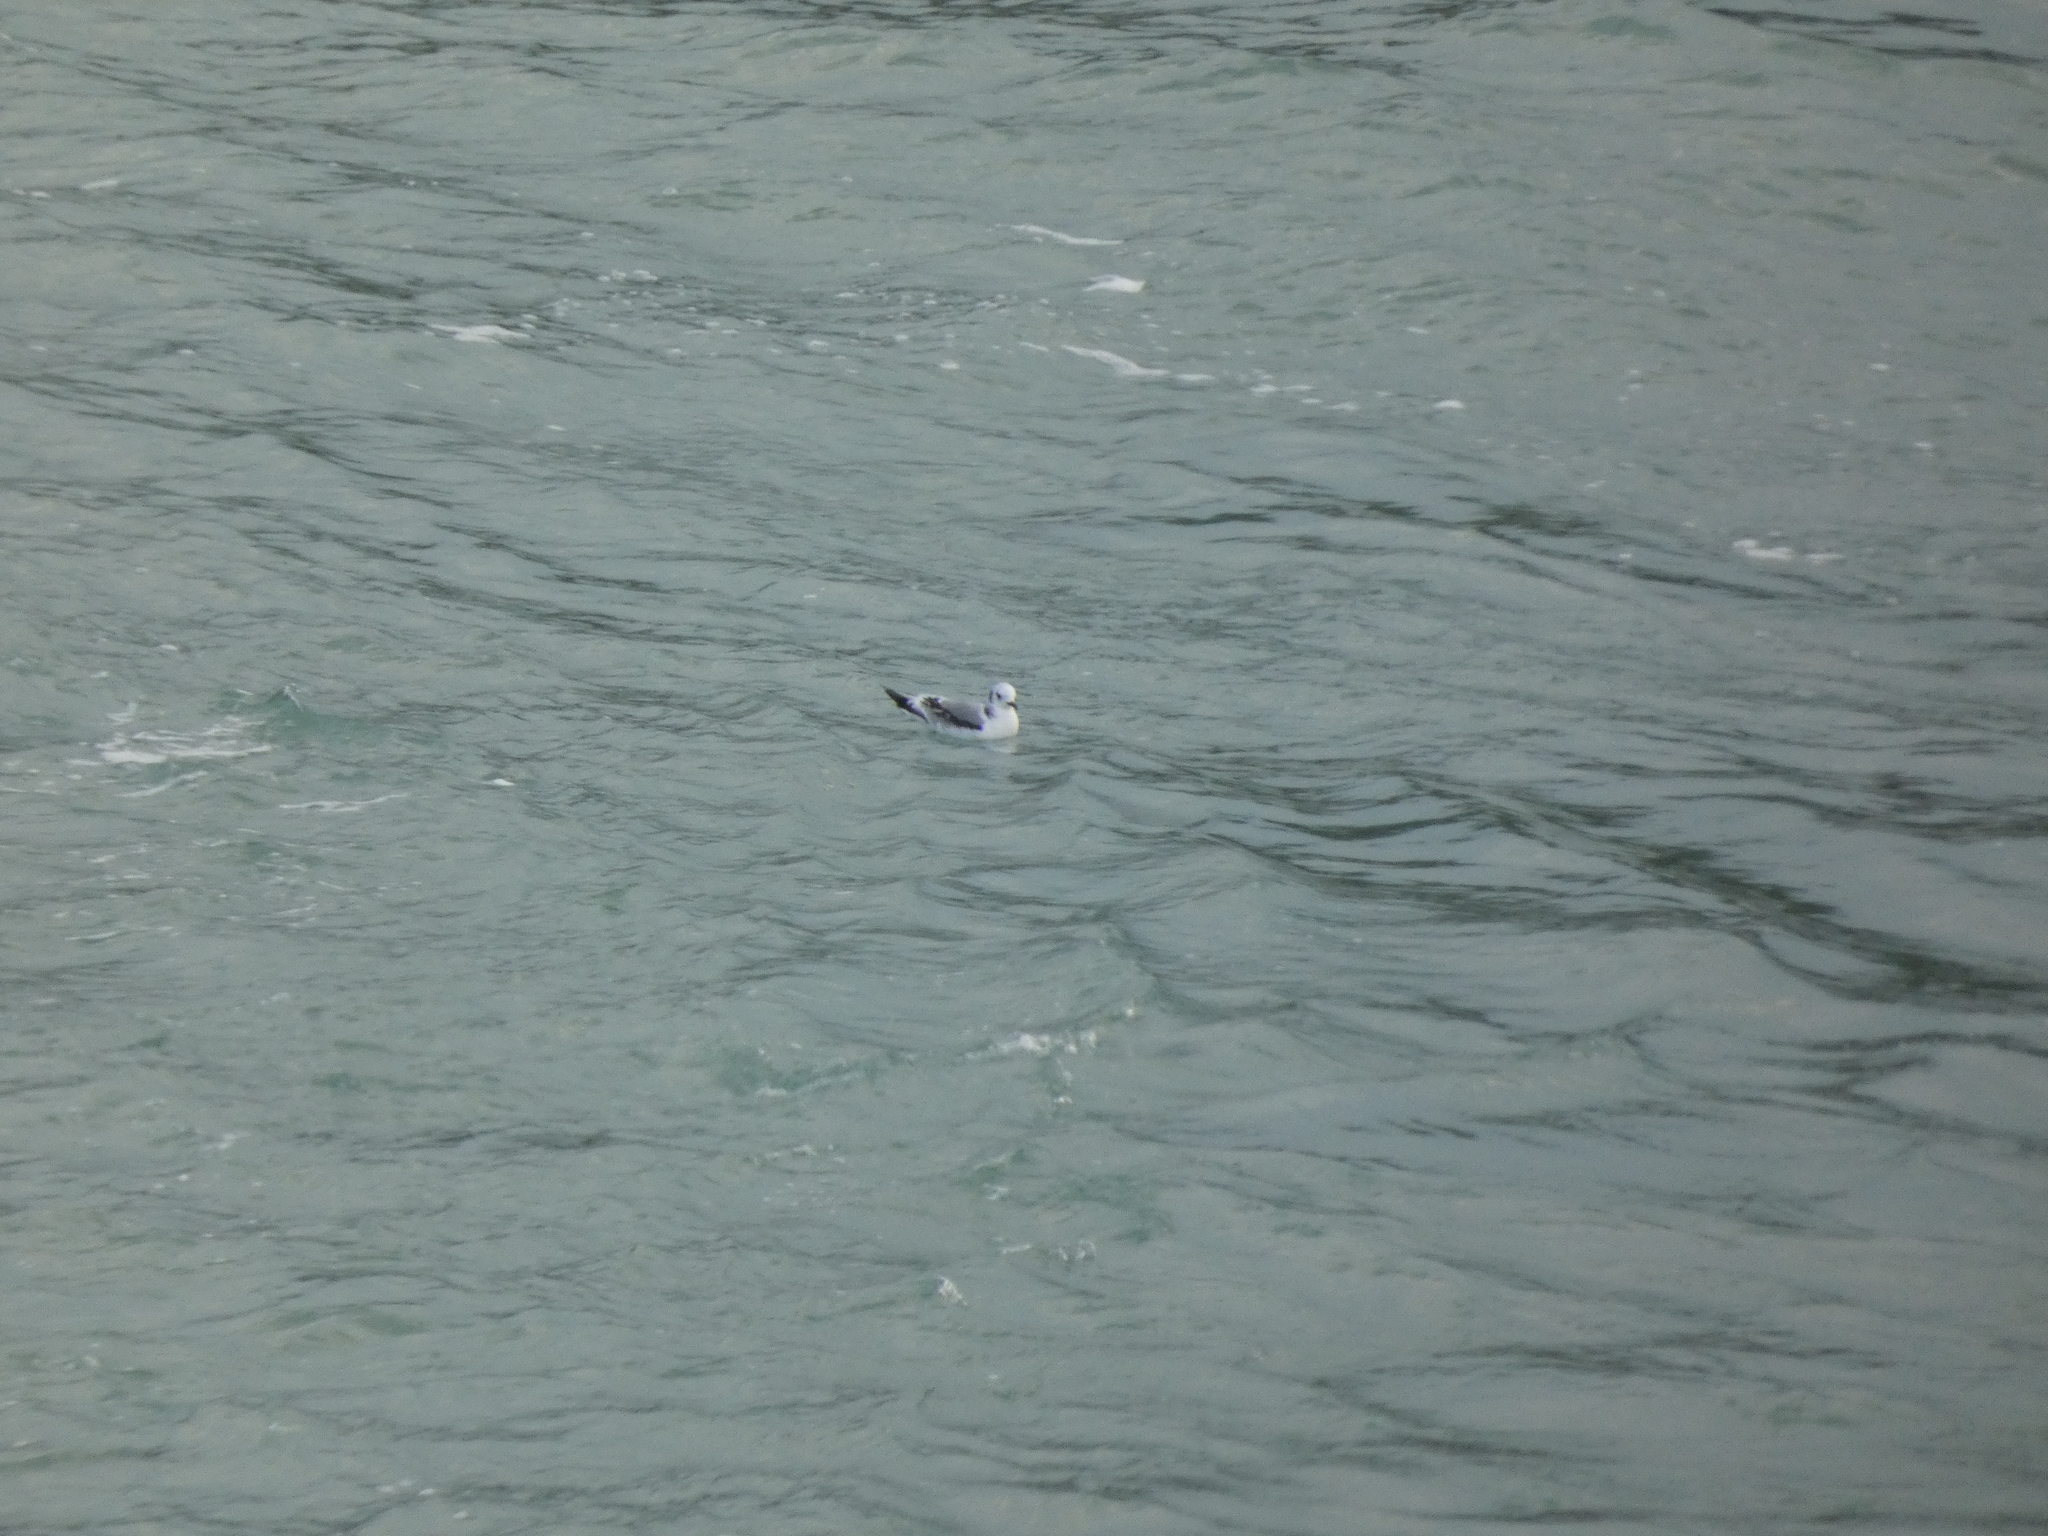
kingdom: Animalia
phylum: Chordata
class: Aves
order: Charadriiformes
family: Laridae
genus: Rissa
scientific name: Rissa tridactyla
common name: Black-legged kittiwake
